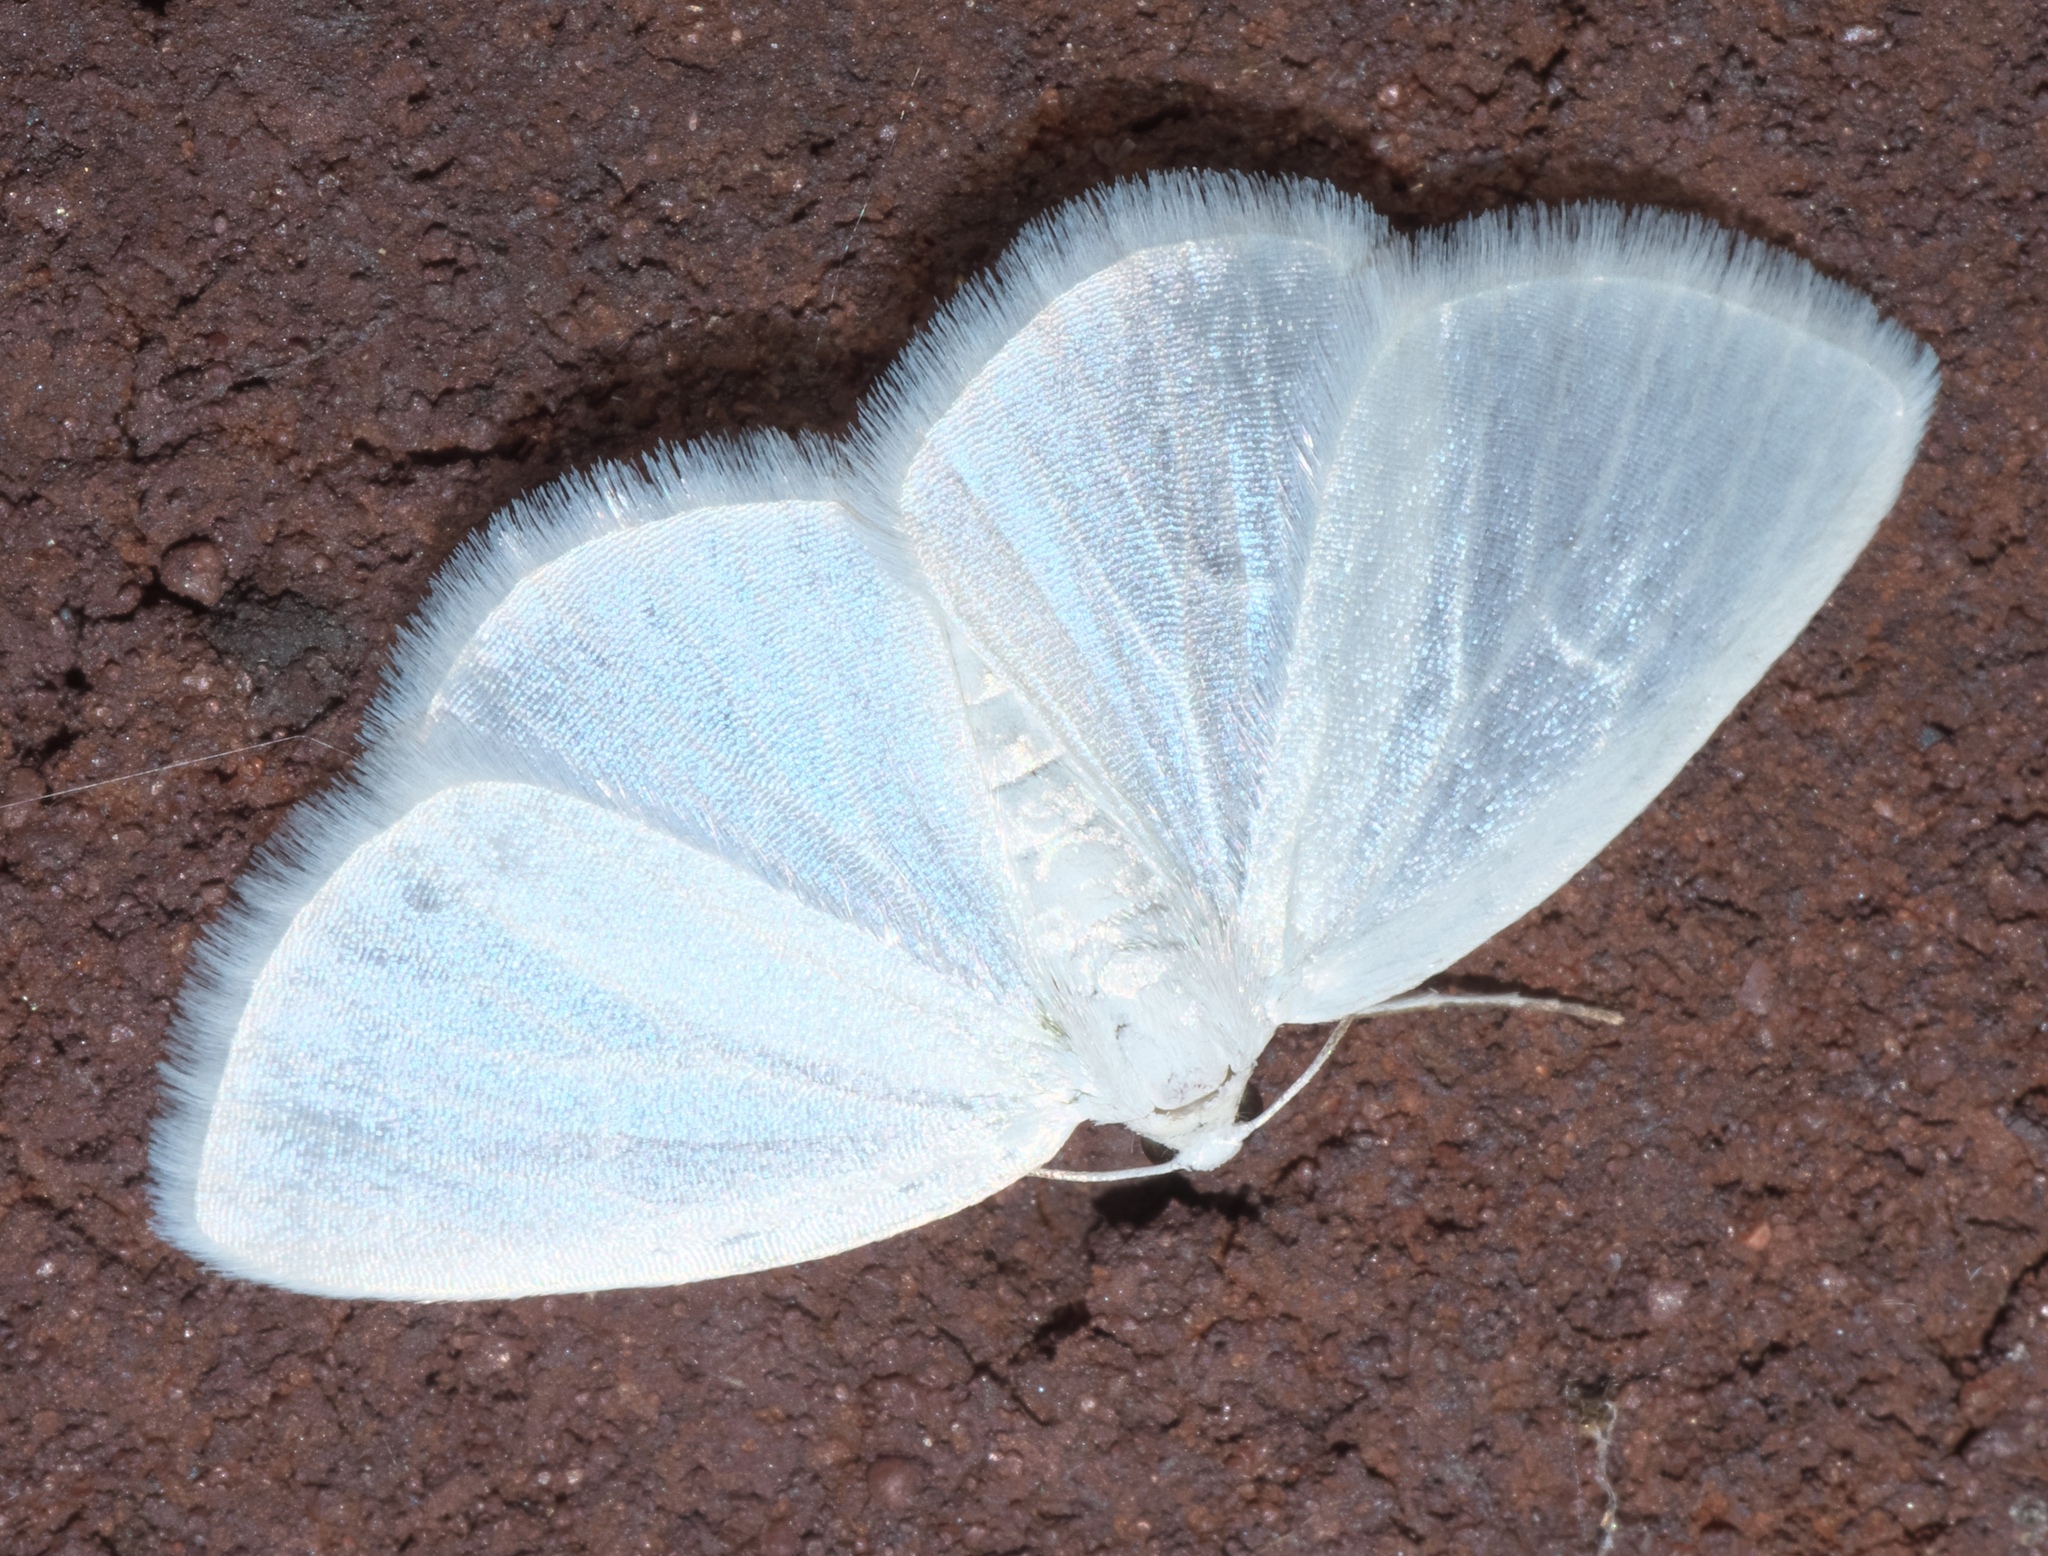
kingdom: Animalia
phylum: Arthropoda
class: Insecta
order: Lepidoptera
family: Geometridae
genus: Lomographa
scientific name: Lomographa vestaliata
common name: White spring moth
